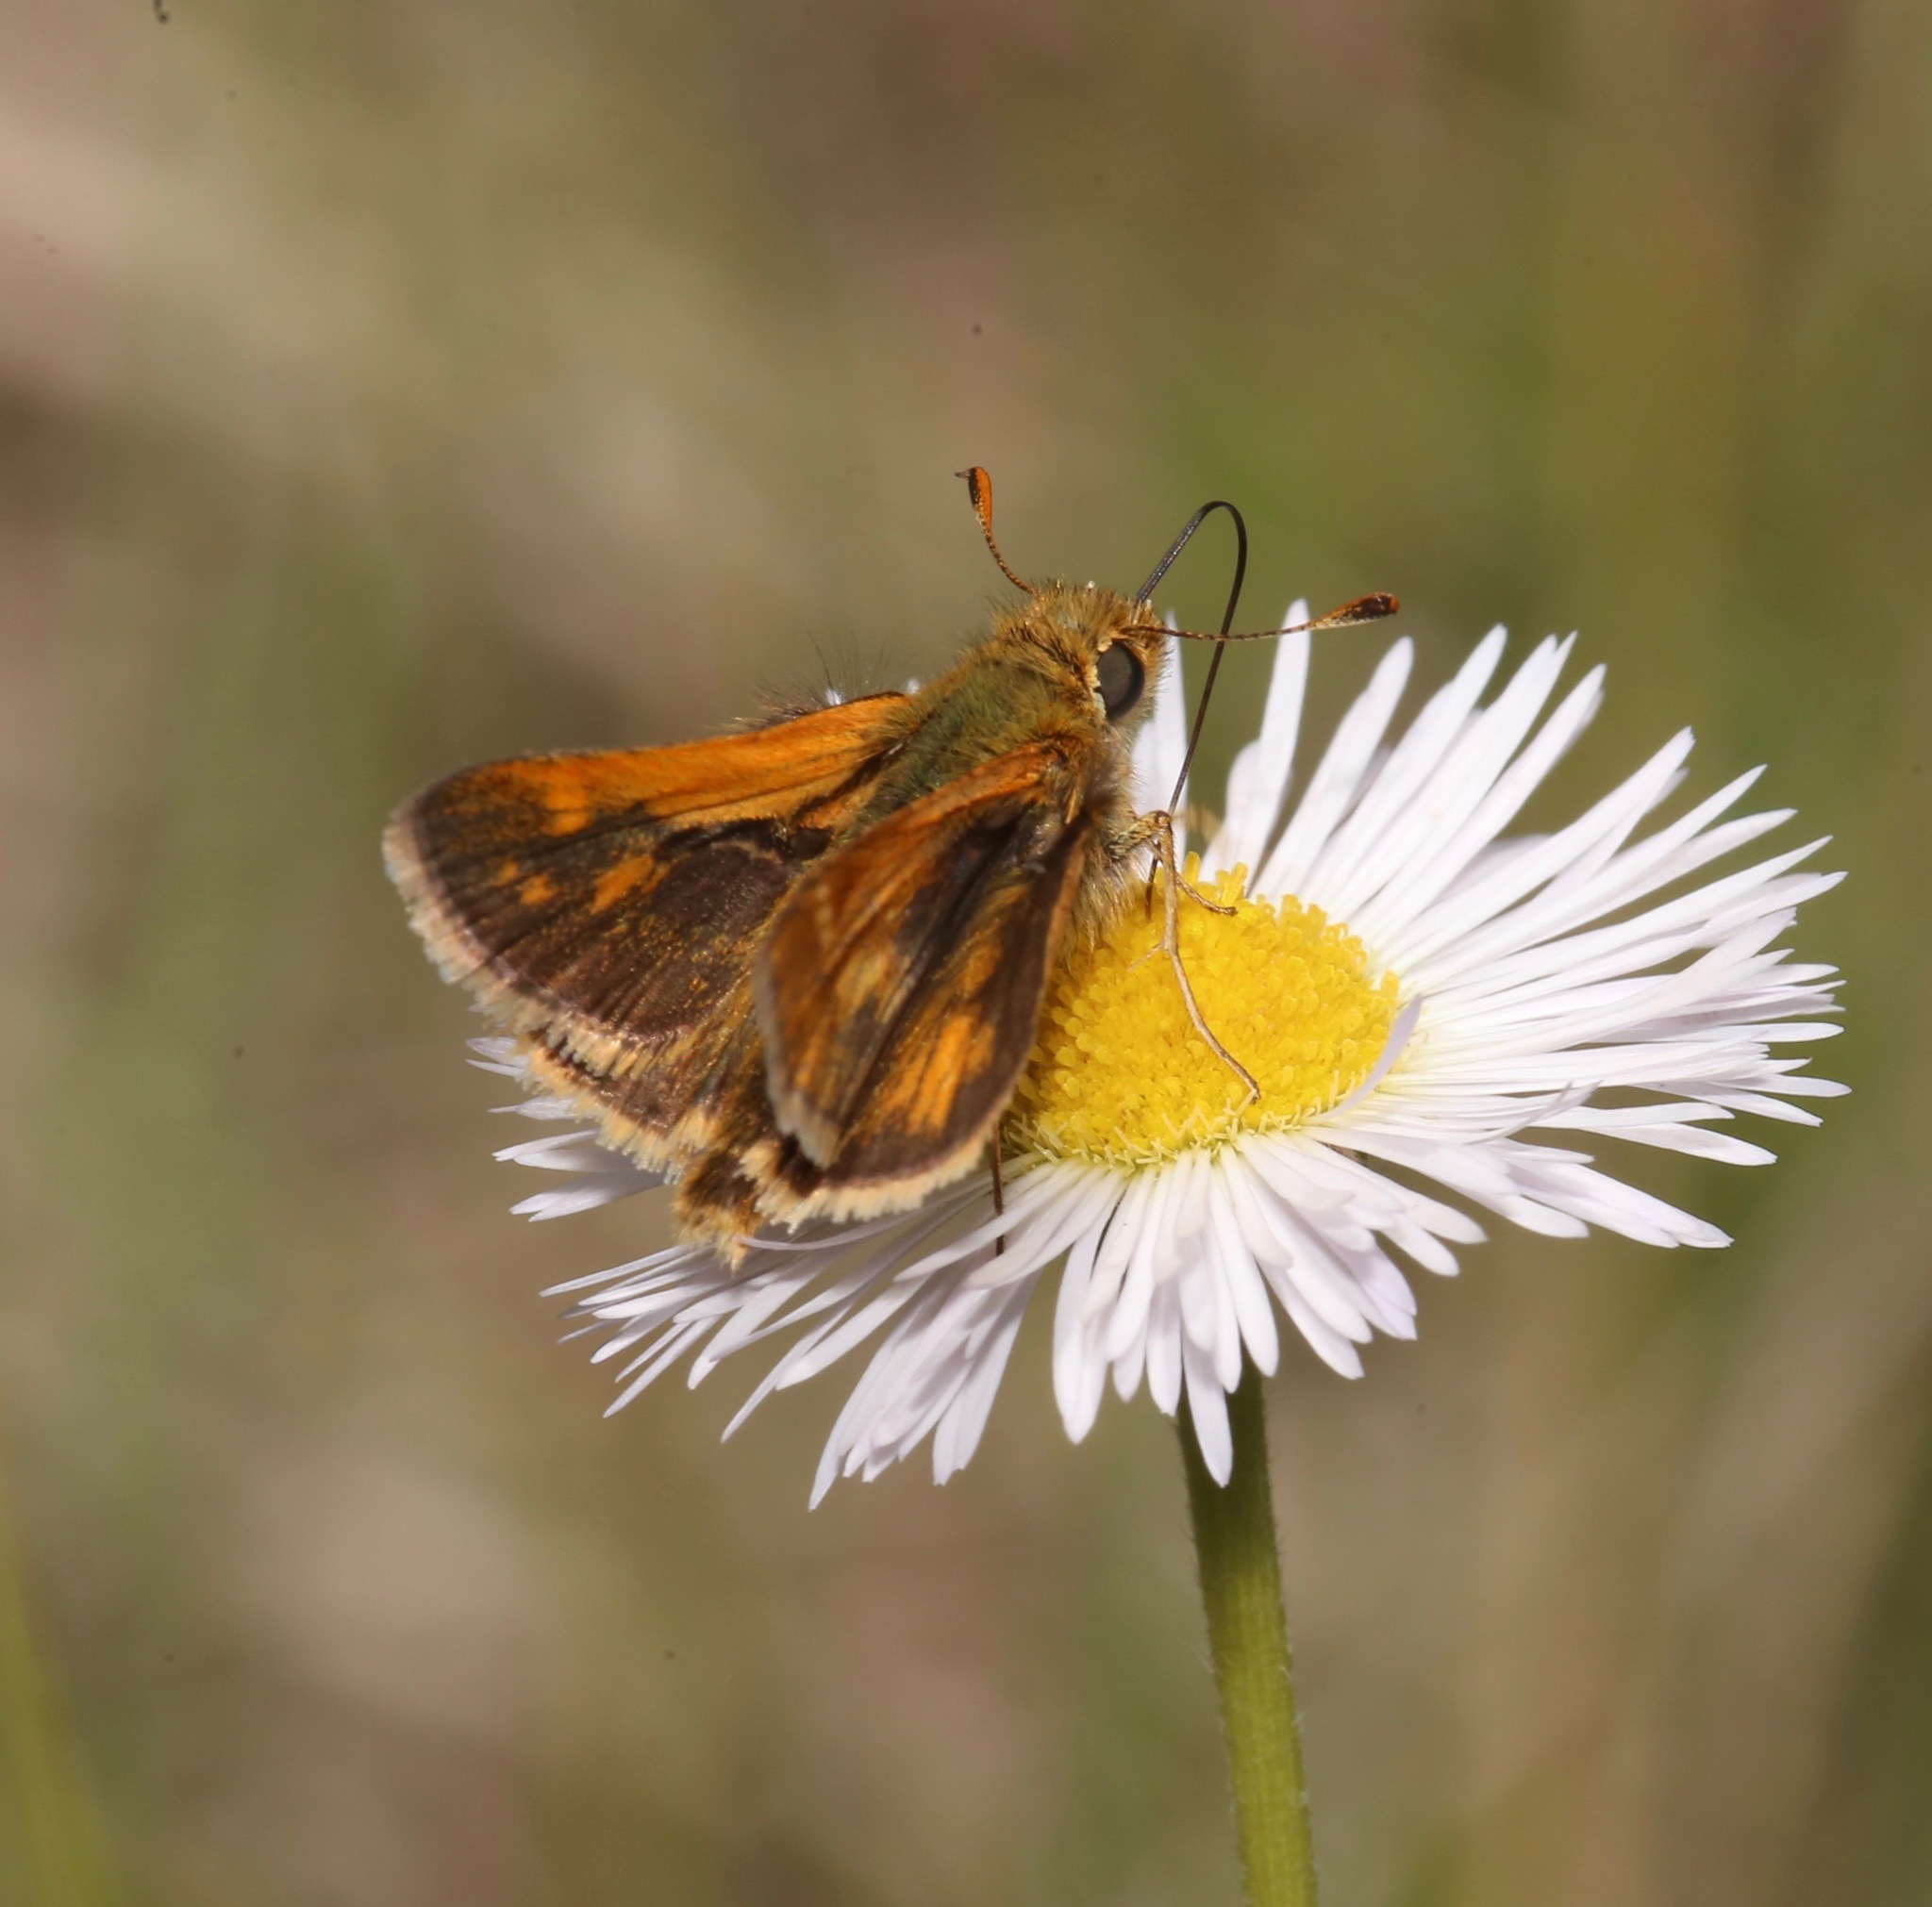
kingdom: Animalia
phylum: Arthropoda
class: Insecta
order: Lepidoptera
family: Hesperiidae
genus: Polites
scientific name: Polites coras
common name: Peck's skipper
